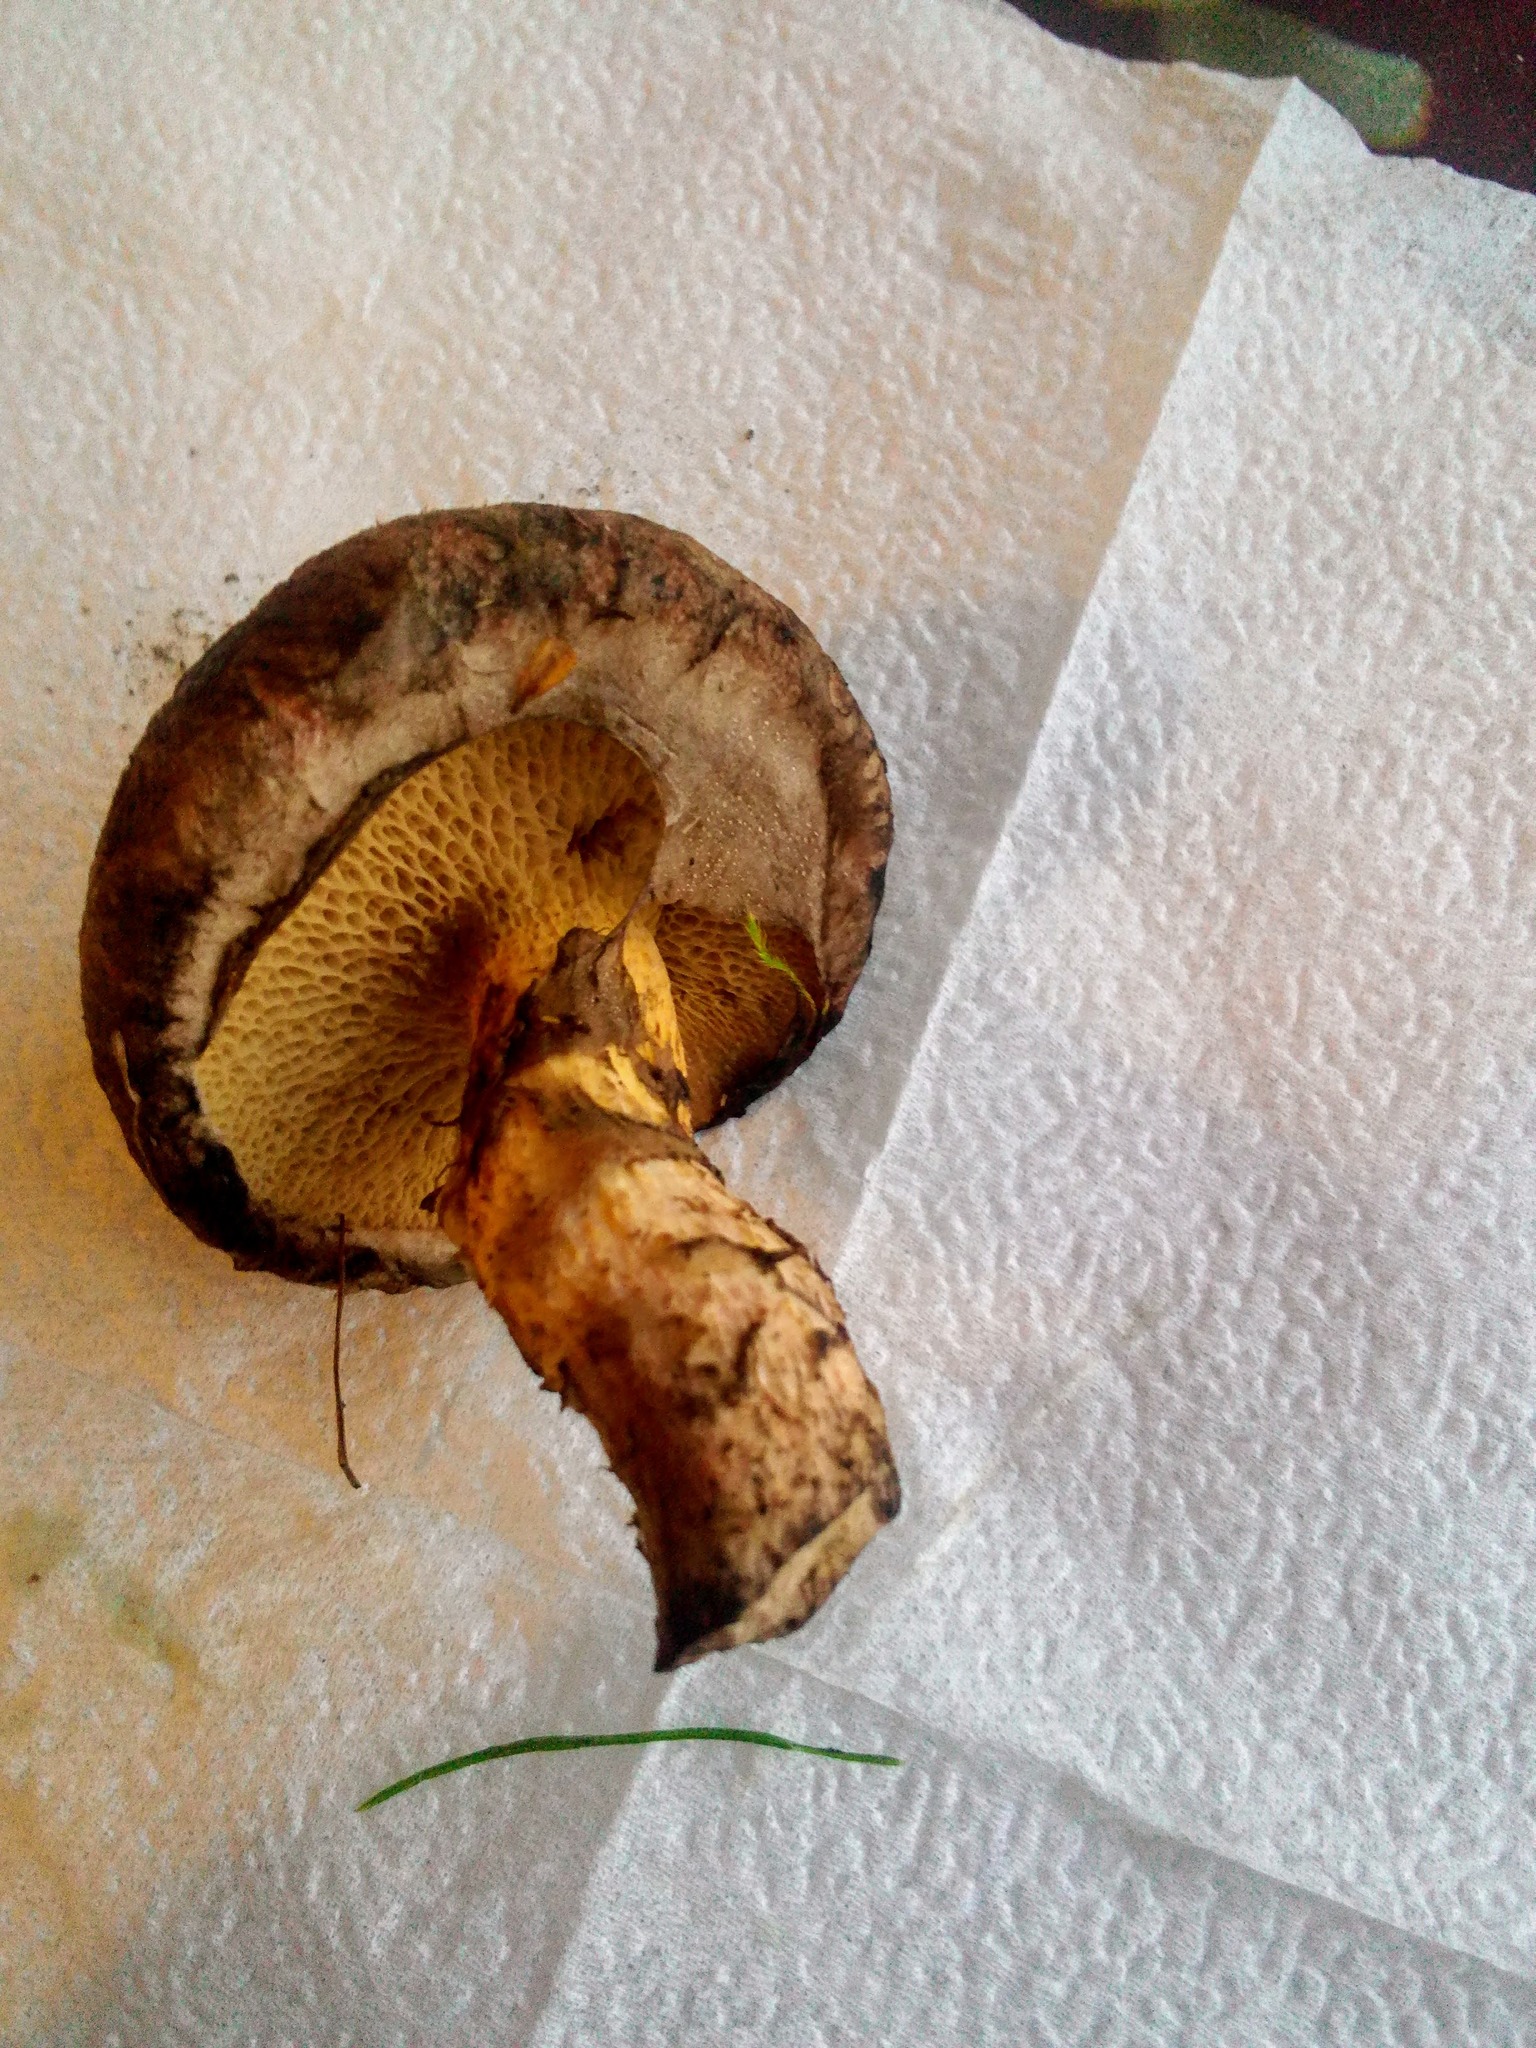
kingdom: Fungi
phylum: Basidiomycota
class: Agaricomycetes
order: Boletales
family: Suillaceae
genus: Suillus
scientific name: Suillus spraguei
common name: Painted suillus
